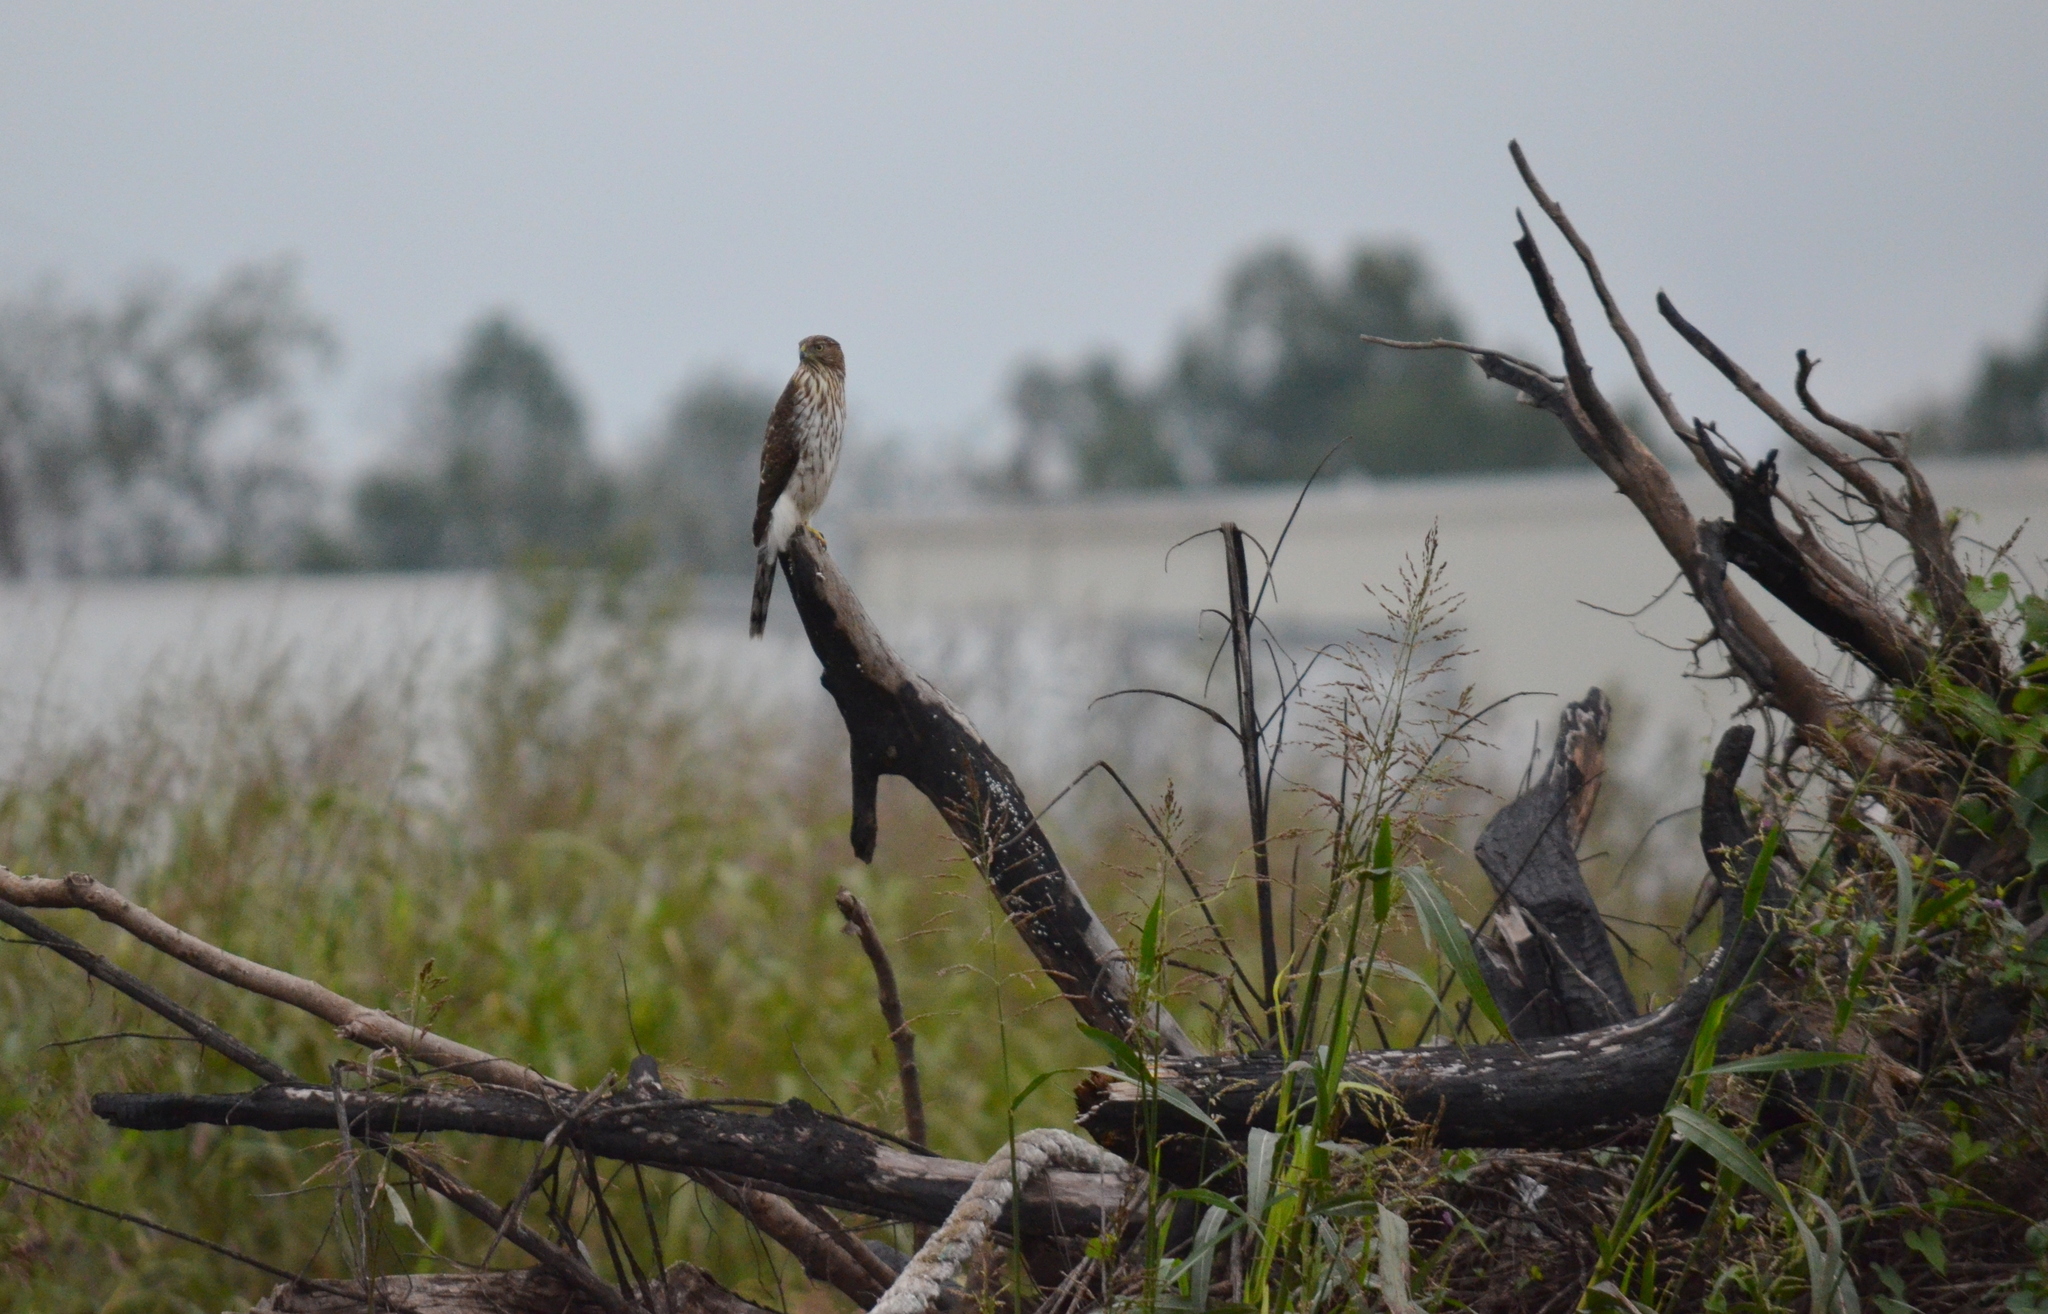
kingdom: Animalia
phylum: Chordata
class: Aves
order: Accipitriformes
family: Accipitridae
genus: Accipiter
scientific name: Accipiter cooperii
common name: Cooper's hawk
